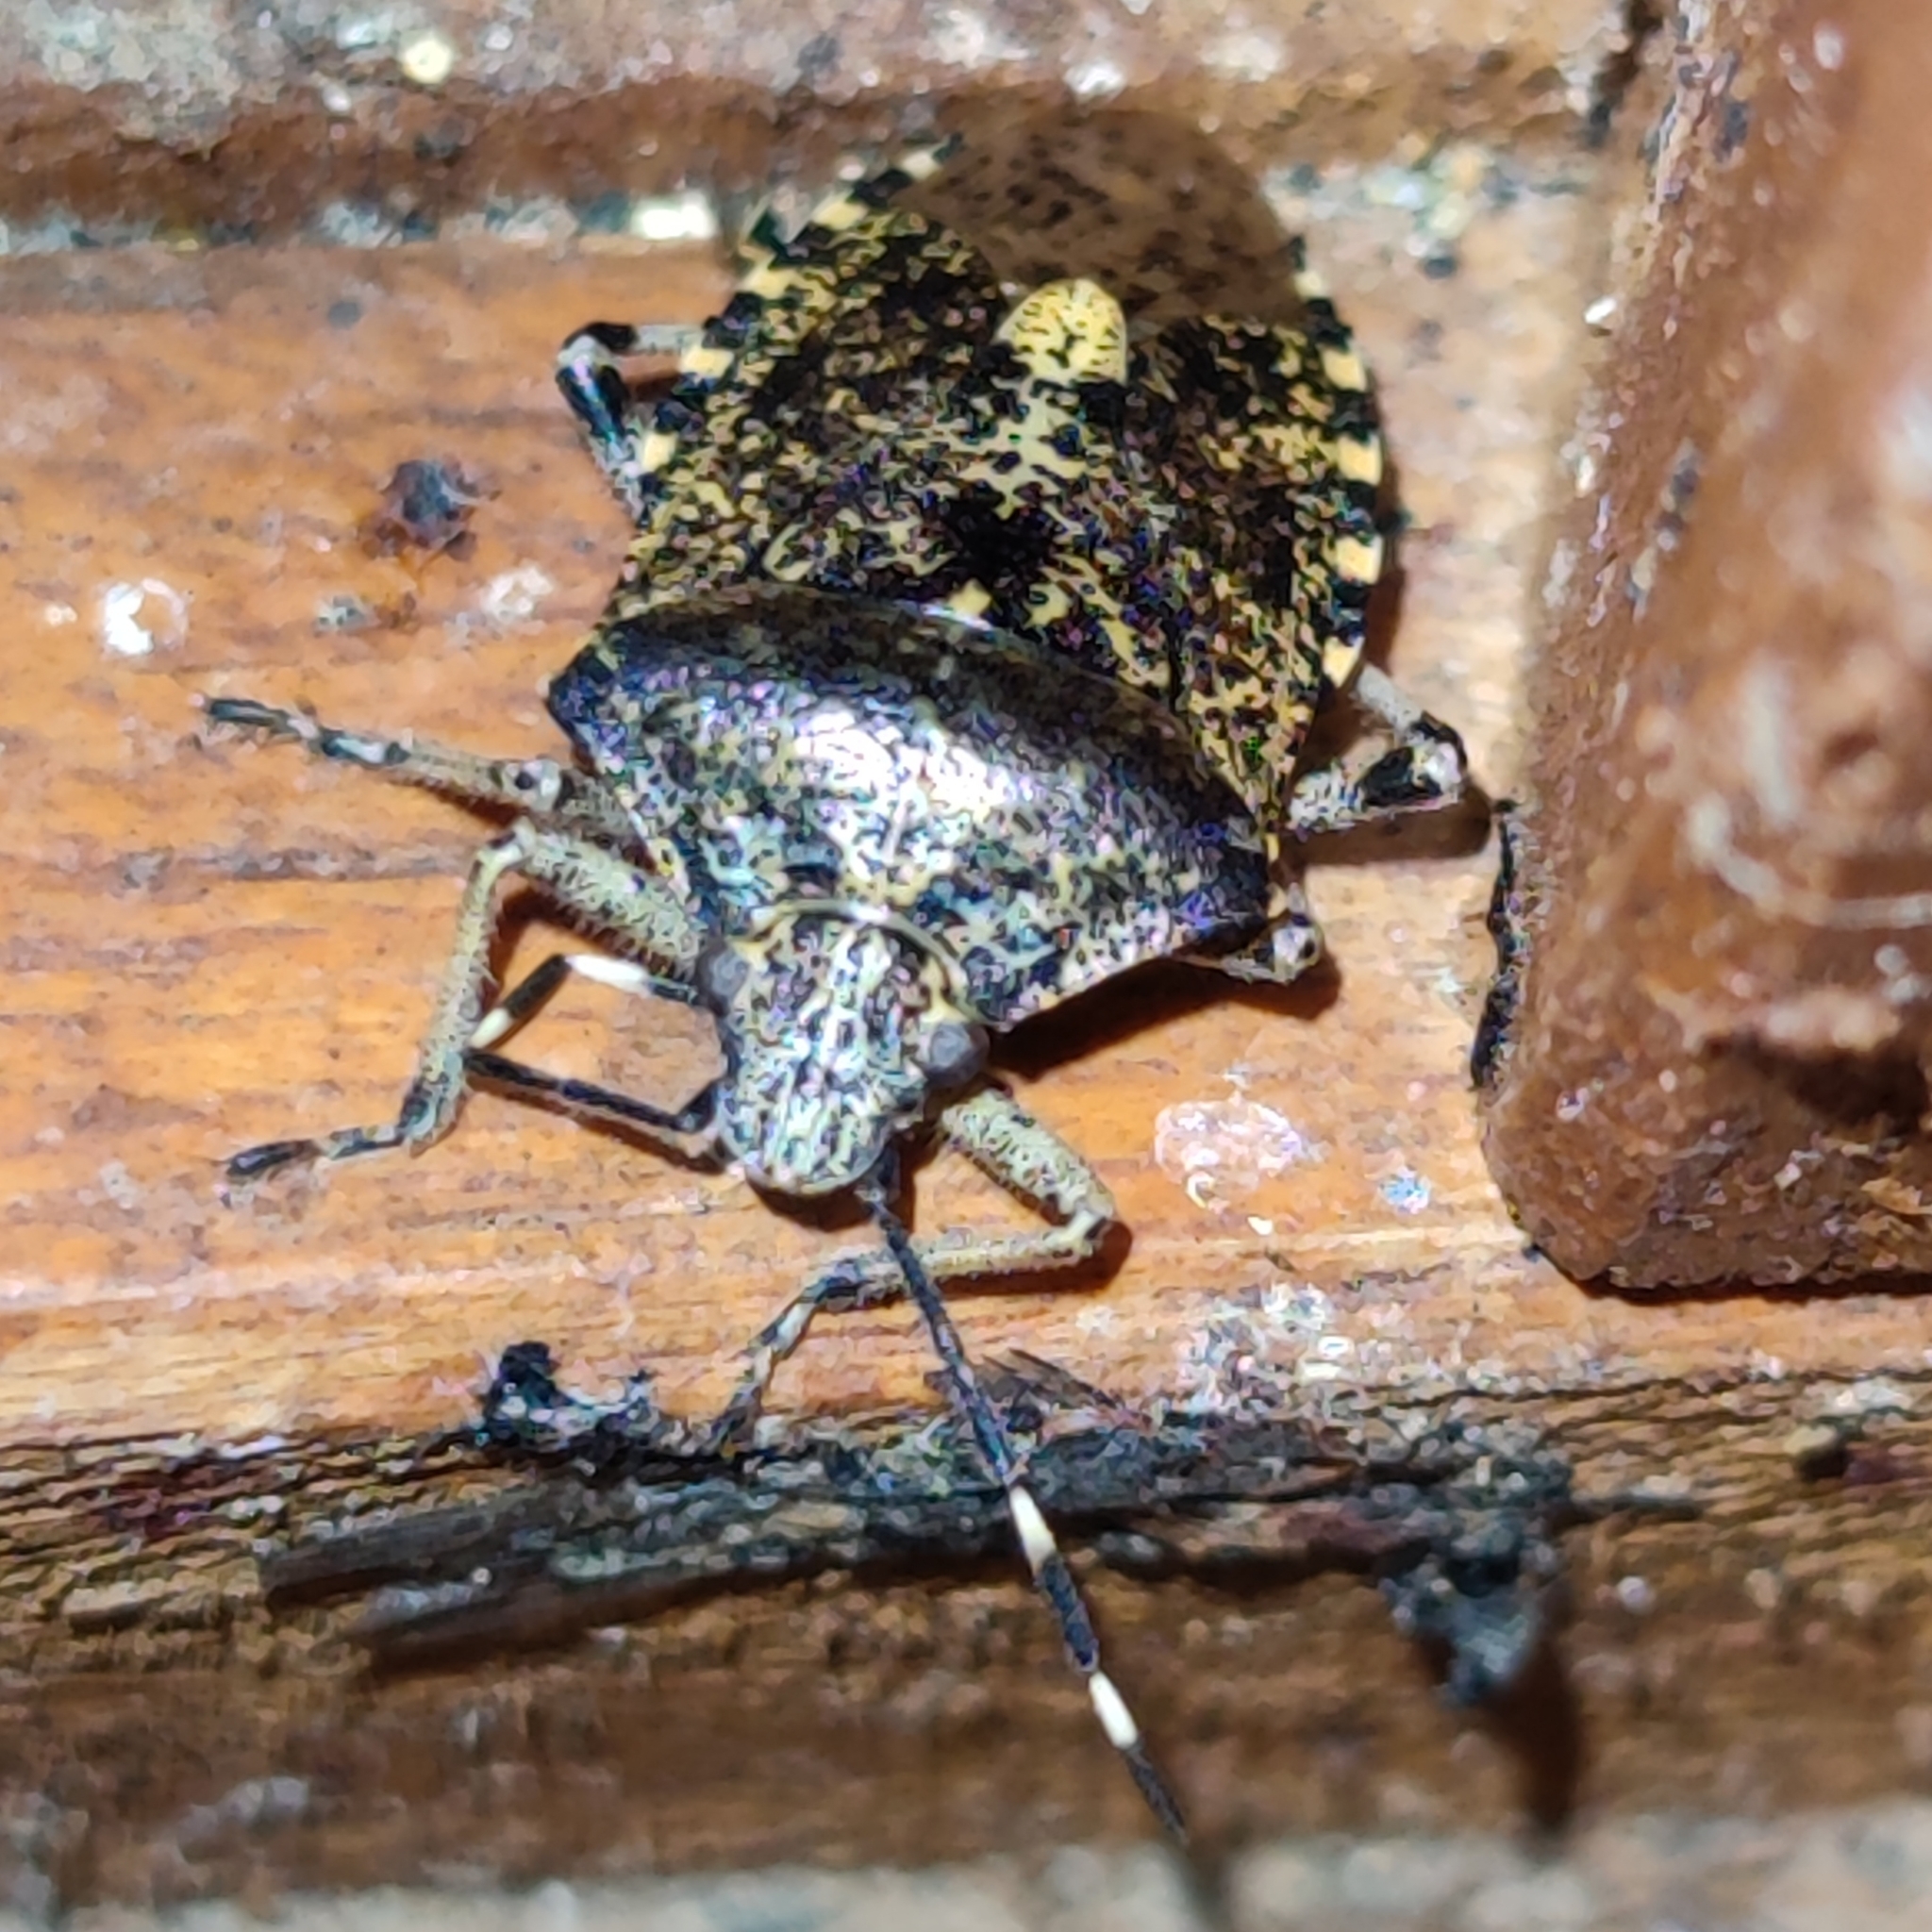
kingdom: Animalia
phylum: Arthropoda
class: Insecta
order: Hemiptera
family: Pentatomidae
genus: Rhaphigaster
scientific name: Rhaphigaster nebulosa
